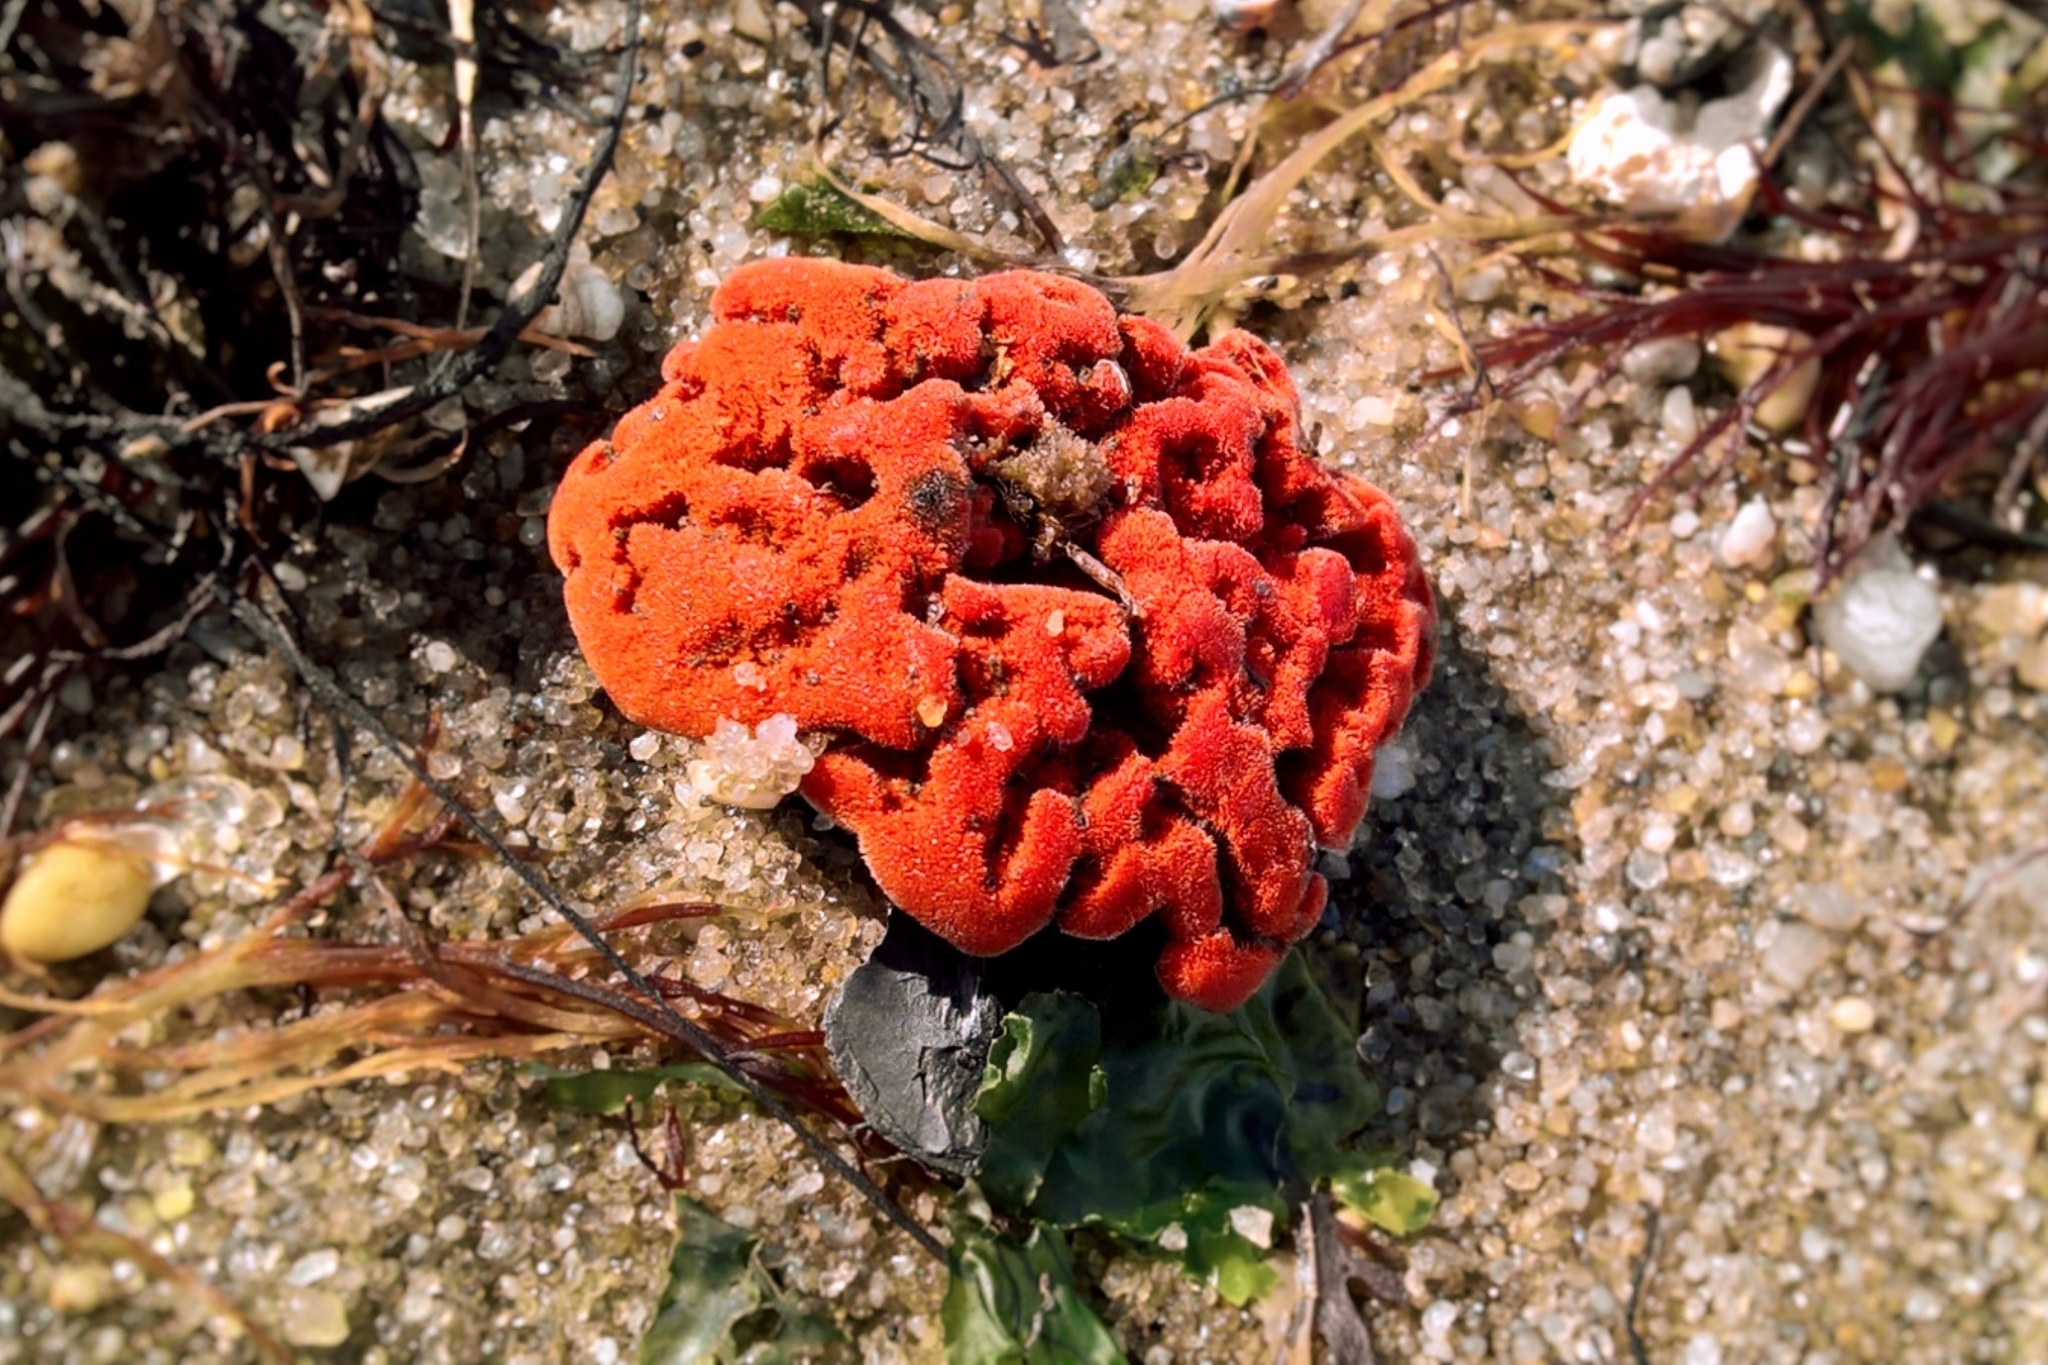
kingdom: Animalia
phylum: Porifera
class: Demospongiae
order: Poecilosclerida
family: Microcionidae
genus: Clathria
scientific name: Clathria prolifera
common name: Red beard sponge
